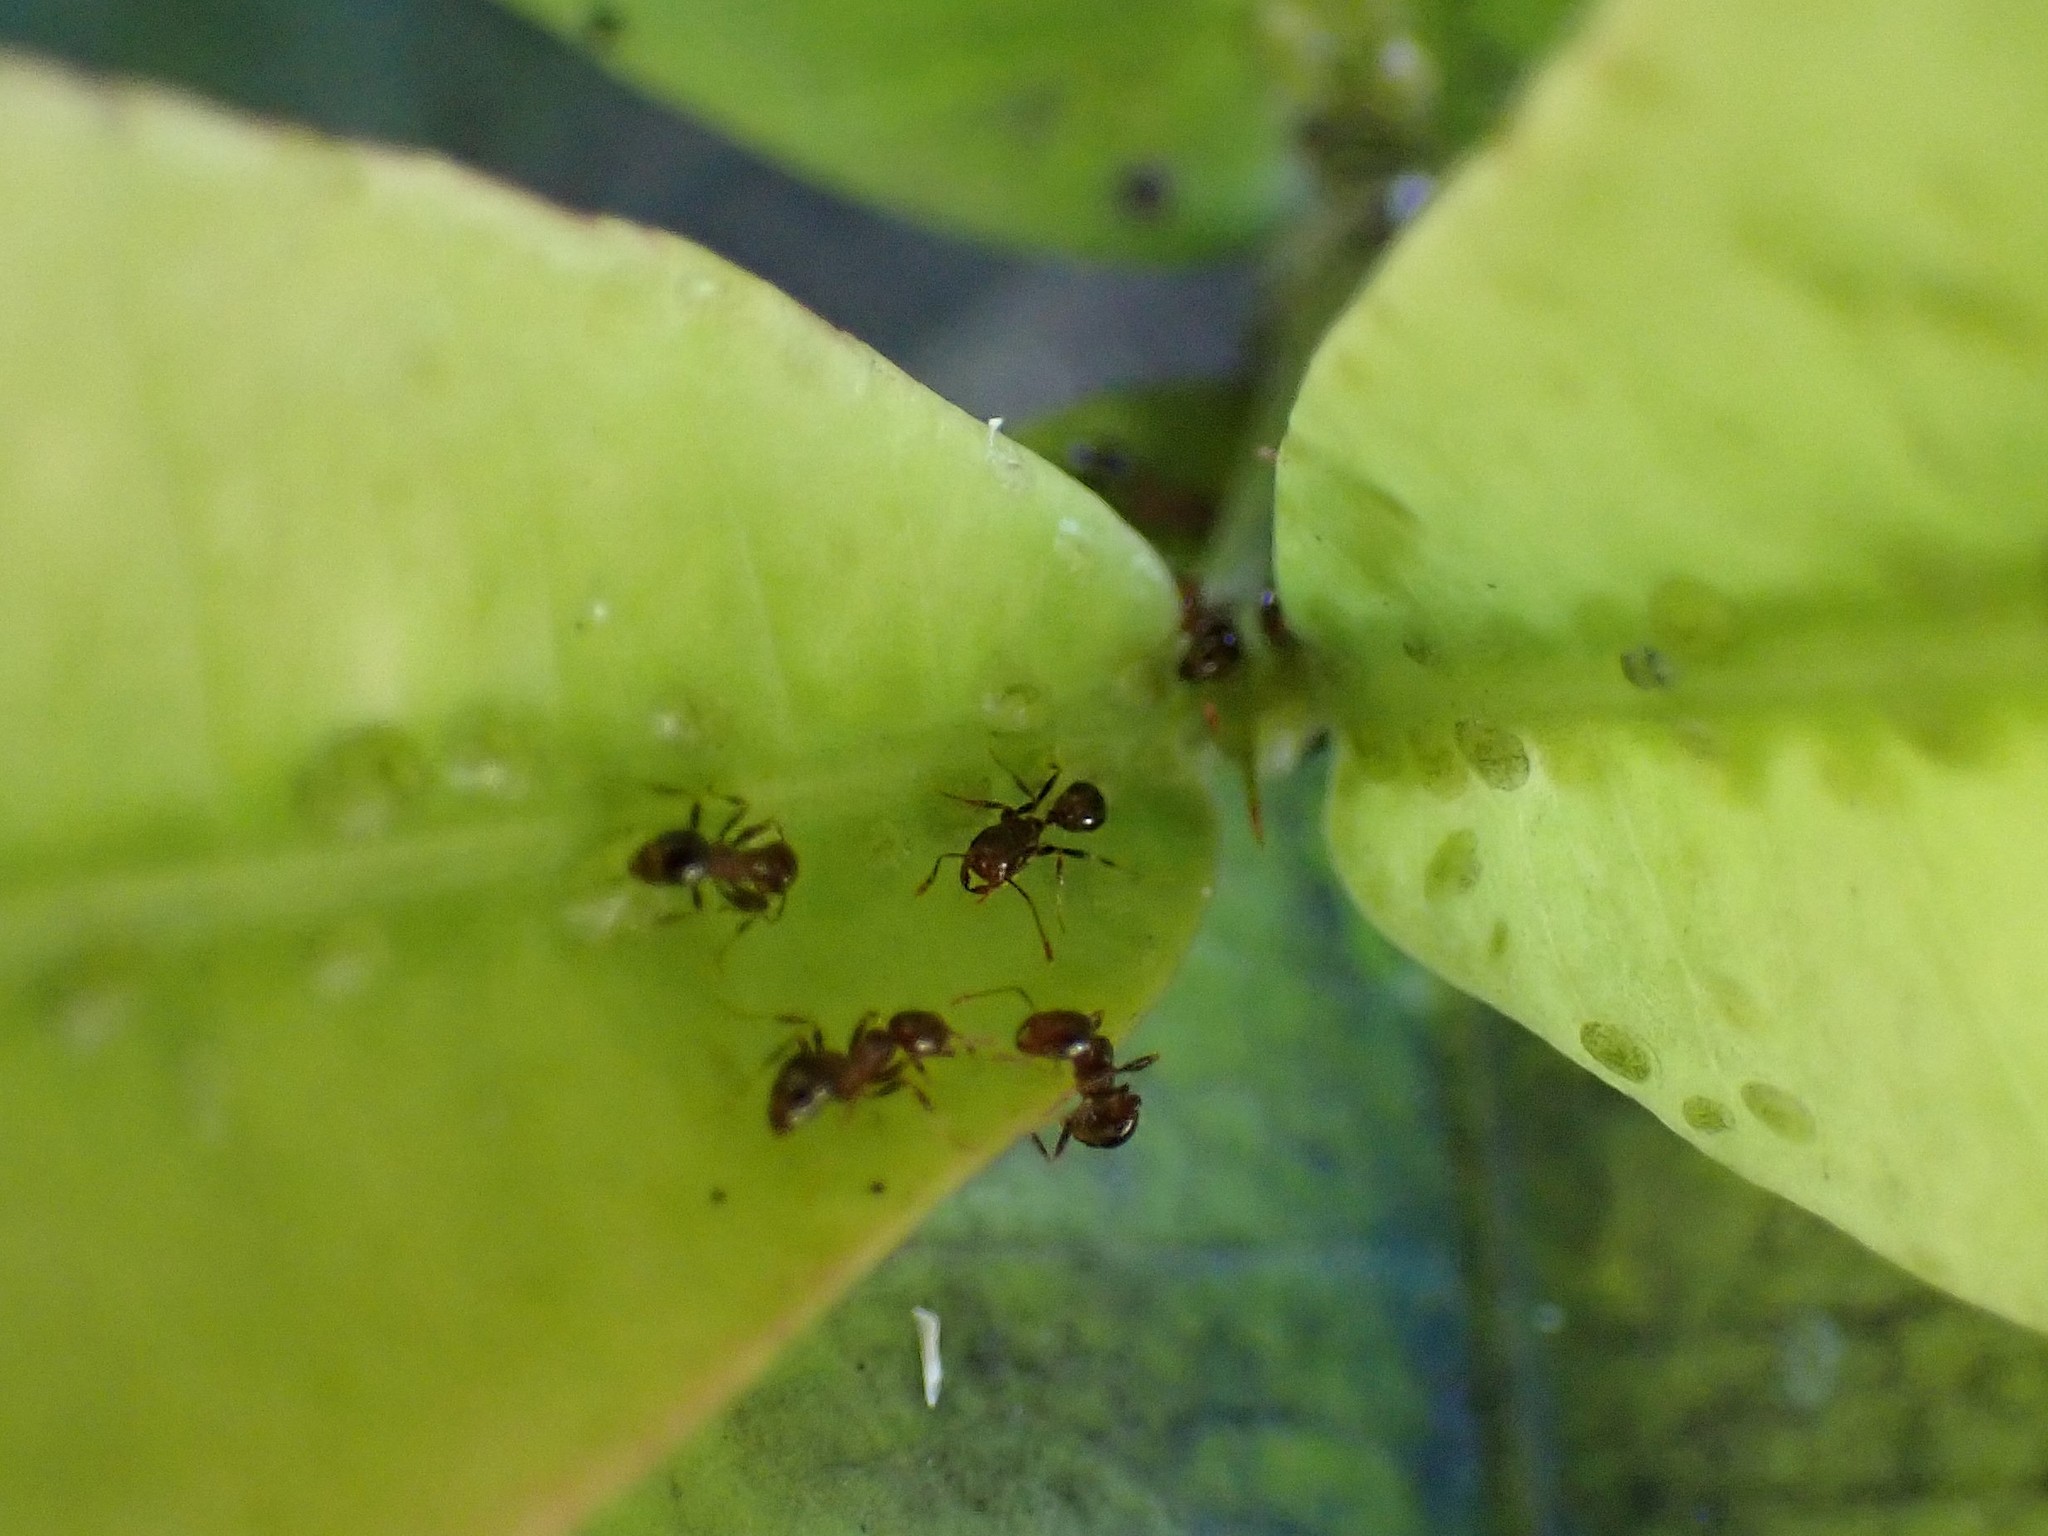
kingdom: Animalia
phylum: Arthropoda
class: Insecta
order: Hymenoptera
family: Formicidae
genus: Solenopsis
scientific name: Solenopsis geminata
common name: Tropical fire ant
